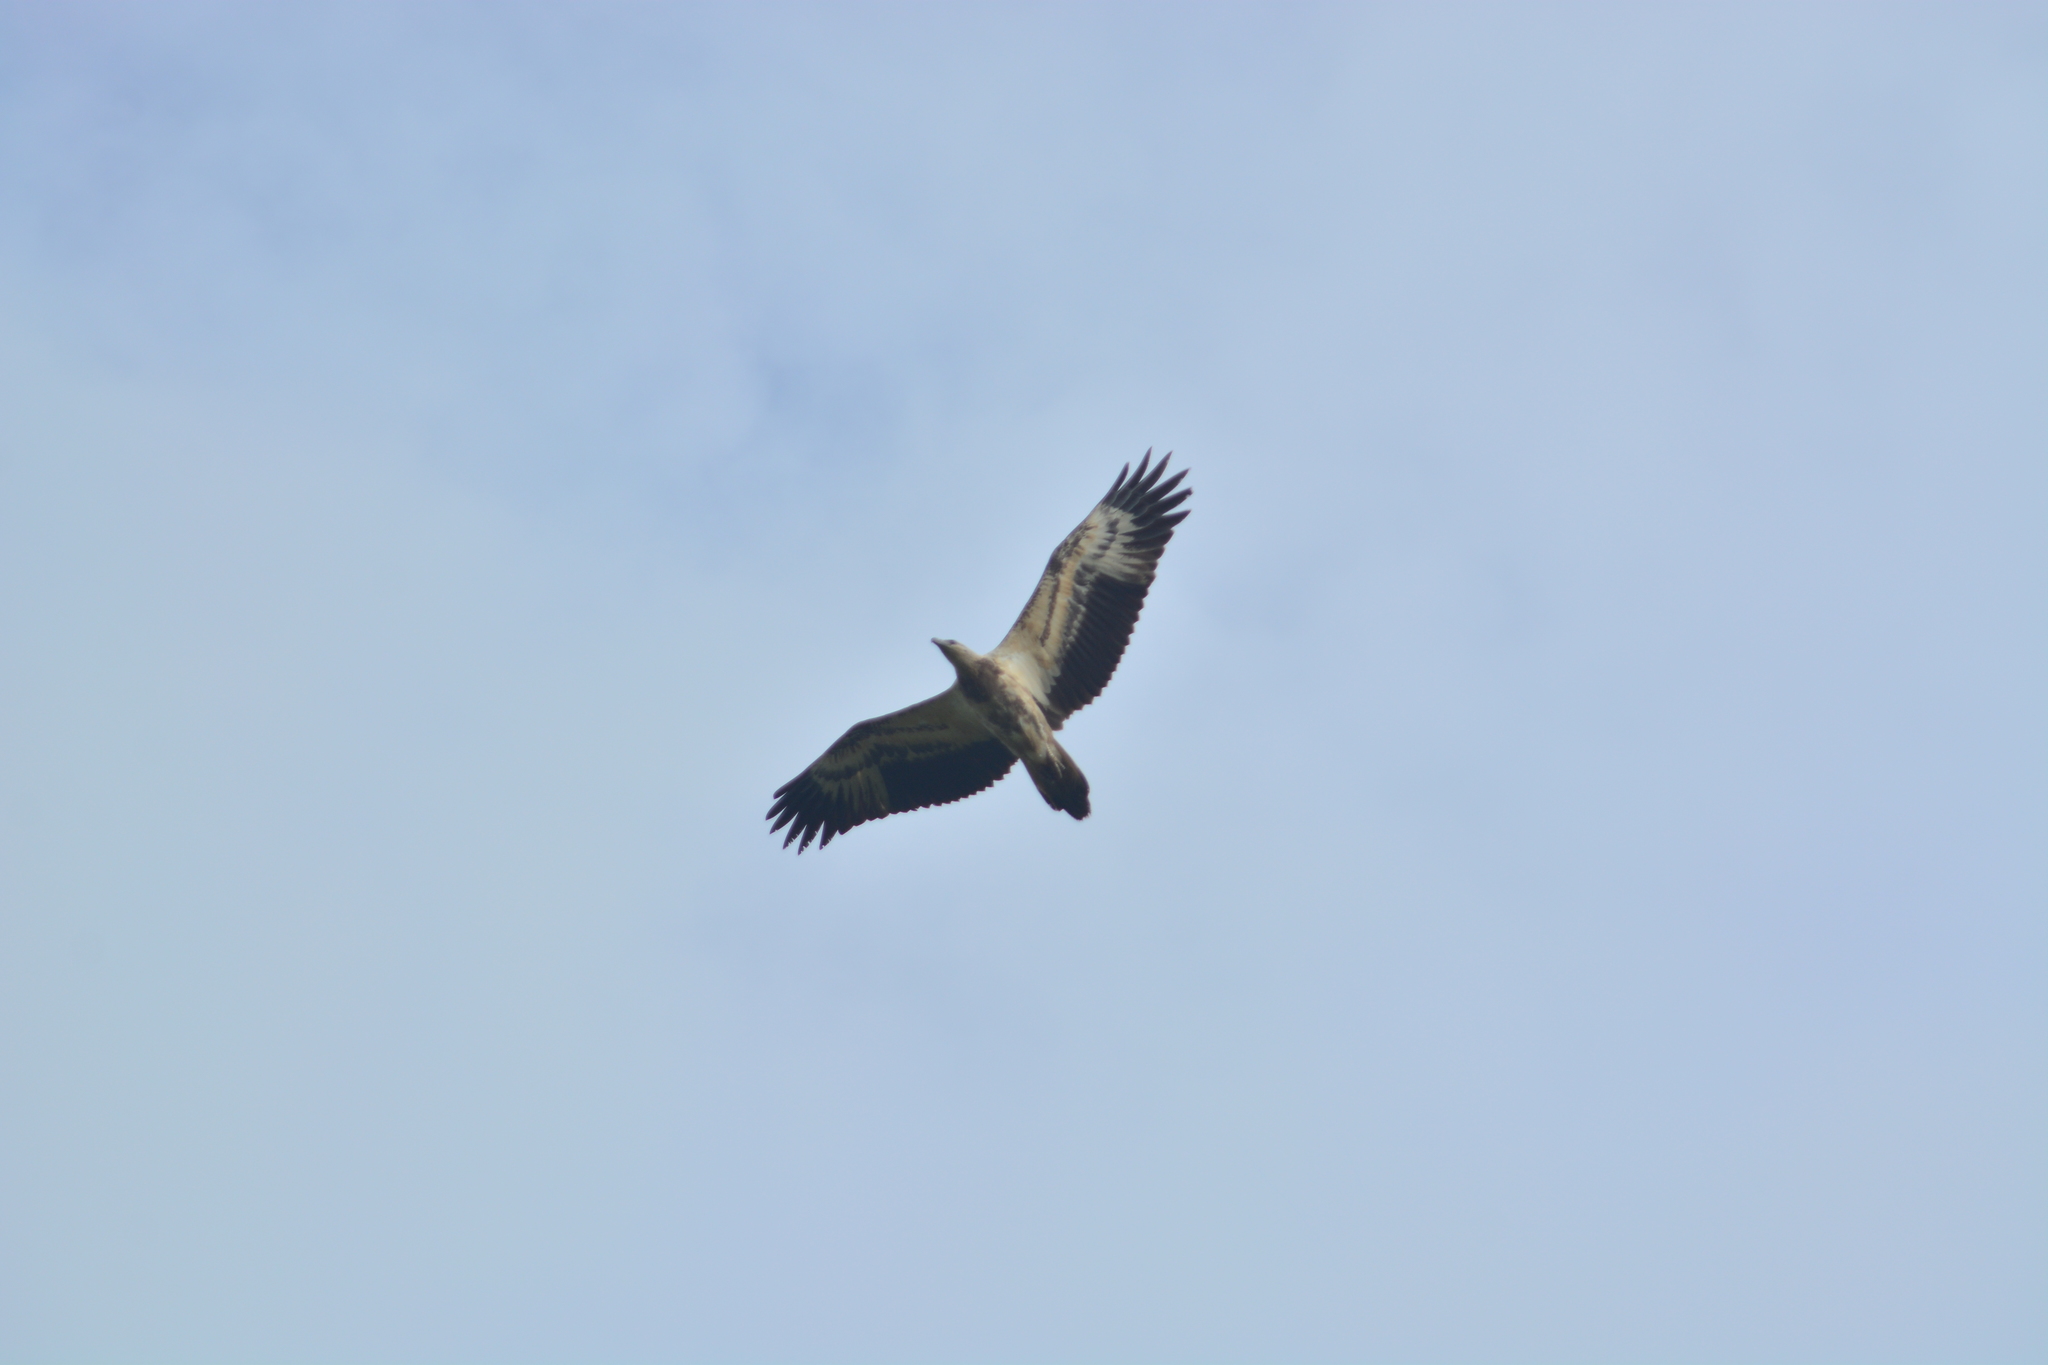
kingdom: Animalia
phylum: Chordata
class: Aves
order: Accipitriformes
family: Accipitridae
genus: Haliaeetus
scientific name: Haliaeetus leucogaster
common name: White-bellied sea eagle
